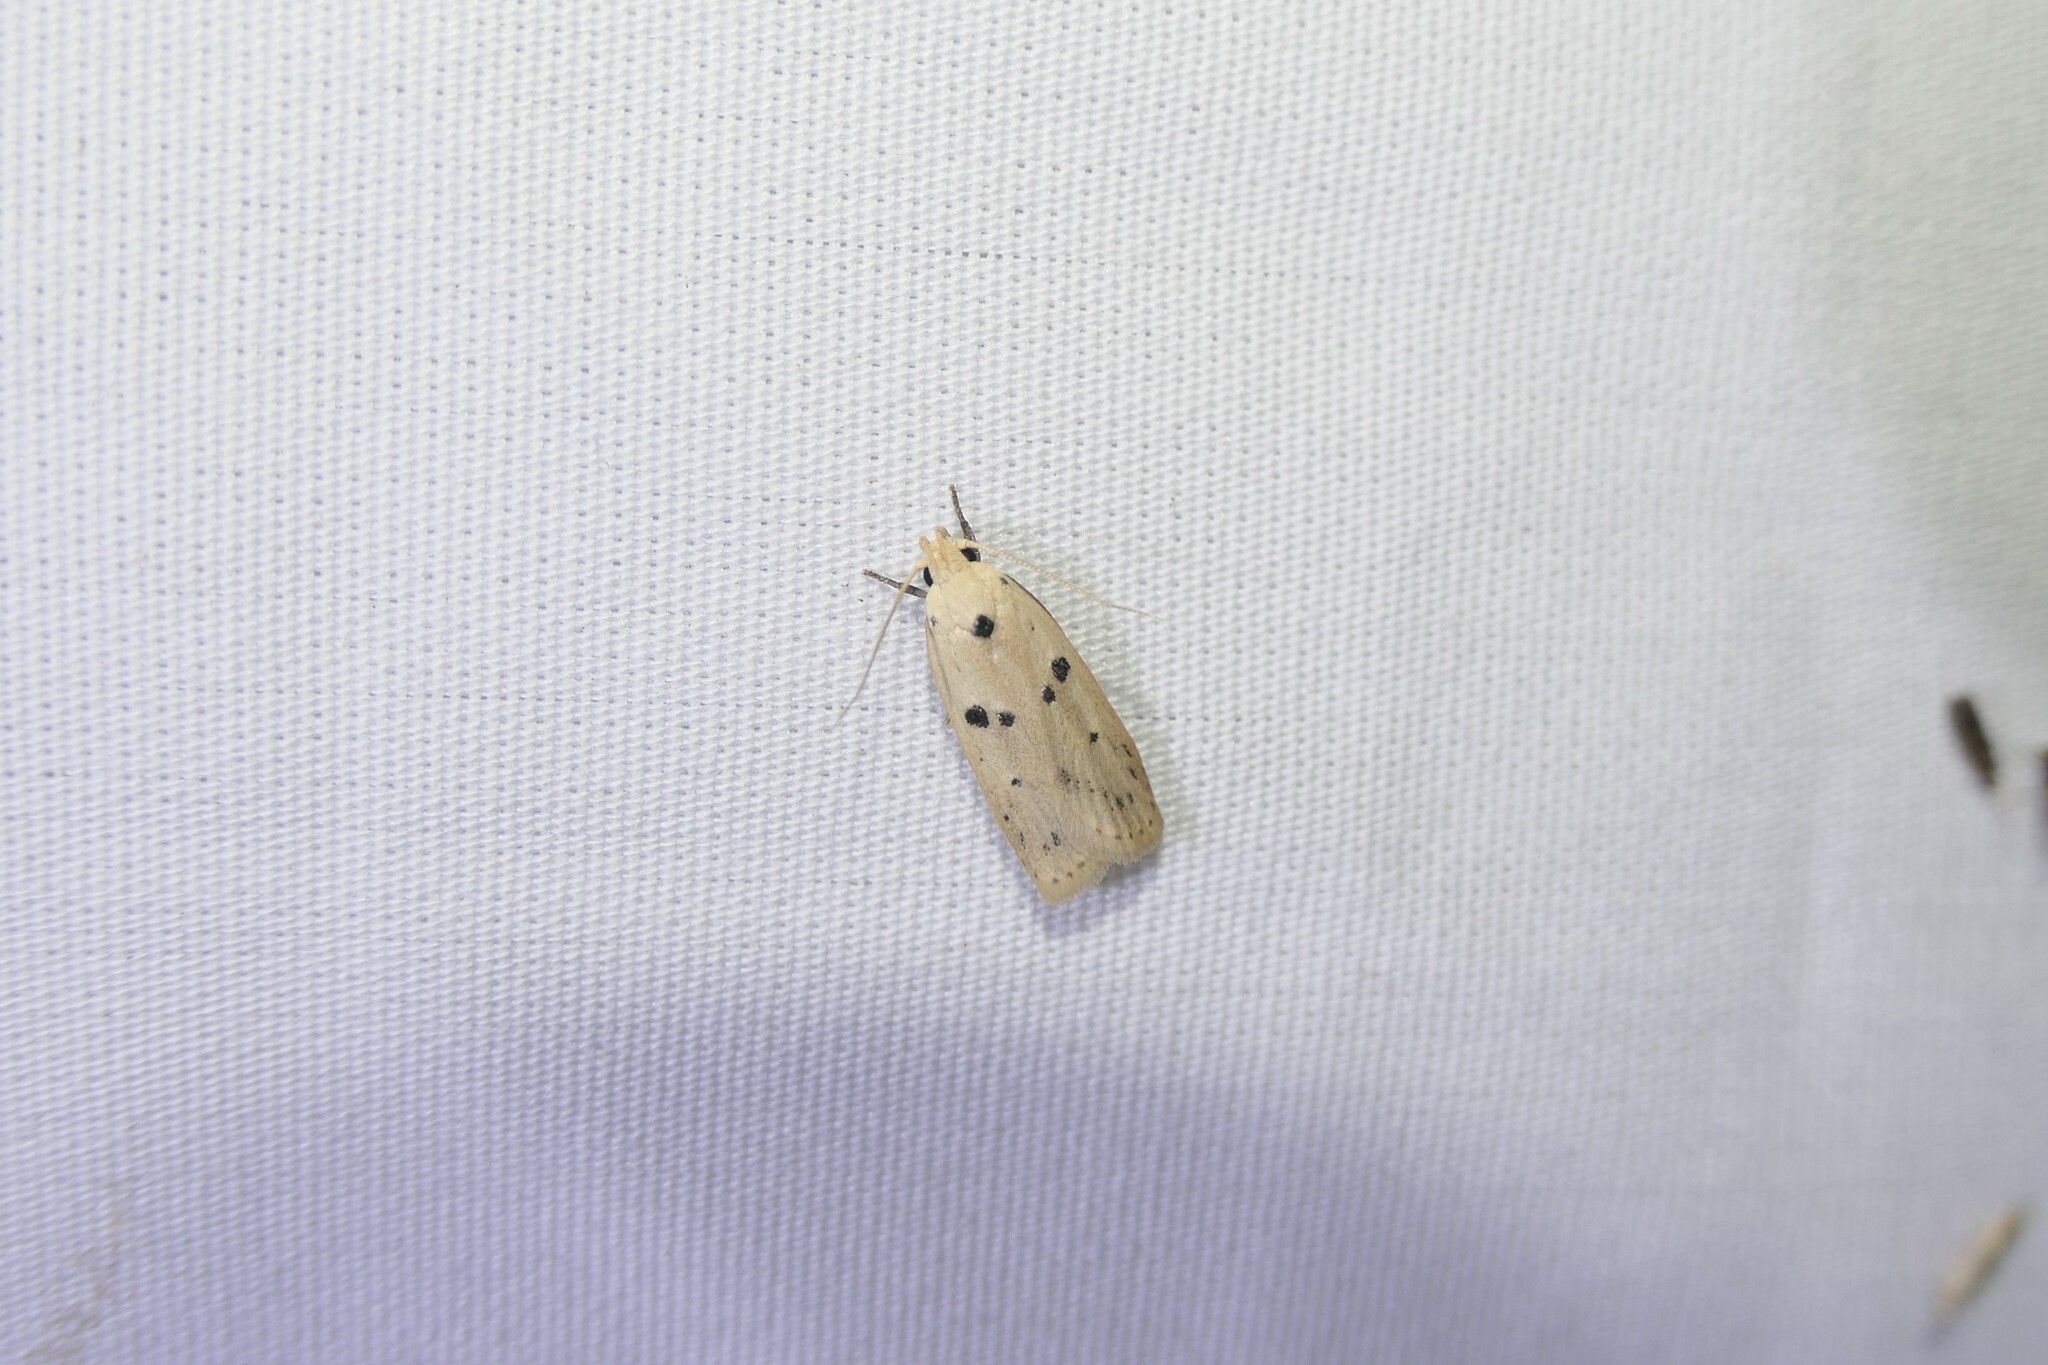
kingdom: Animalia
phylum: Arthropoda
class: Insecta
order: Lepidoptera
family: Peleopodidae
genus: Scythropiodes
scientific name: Scythropiodes issikii
